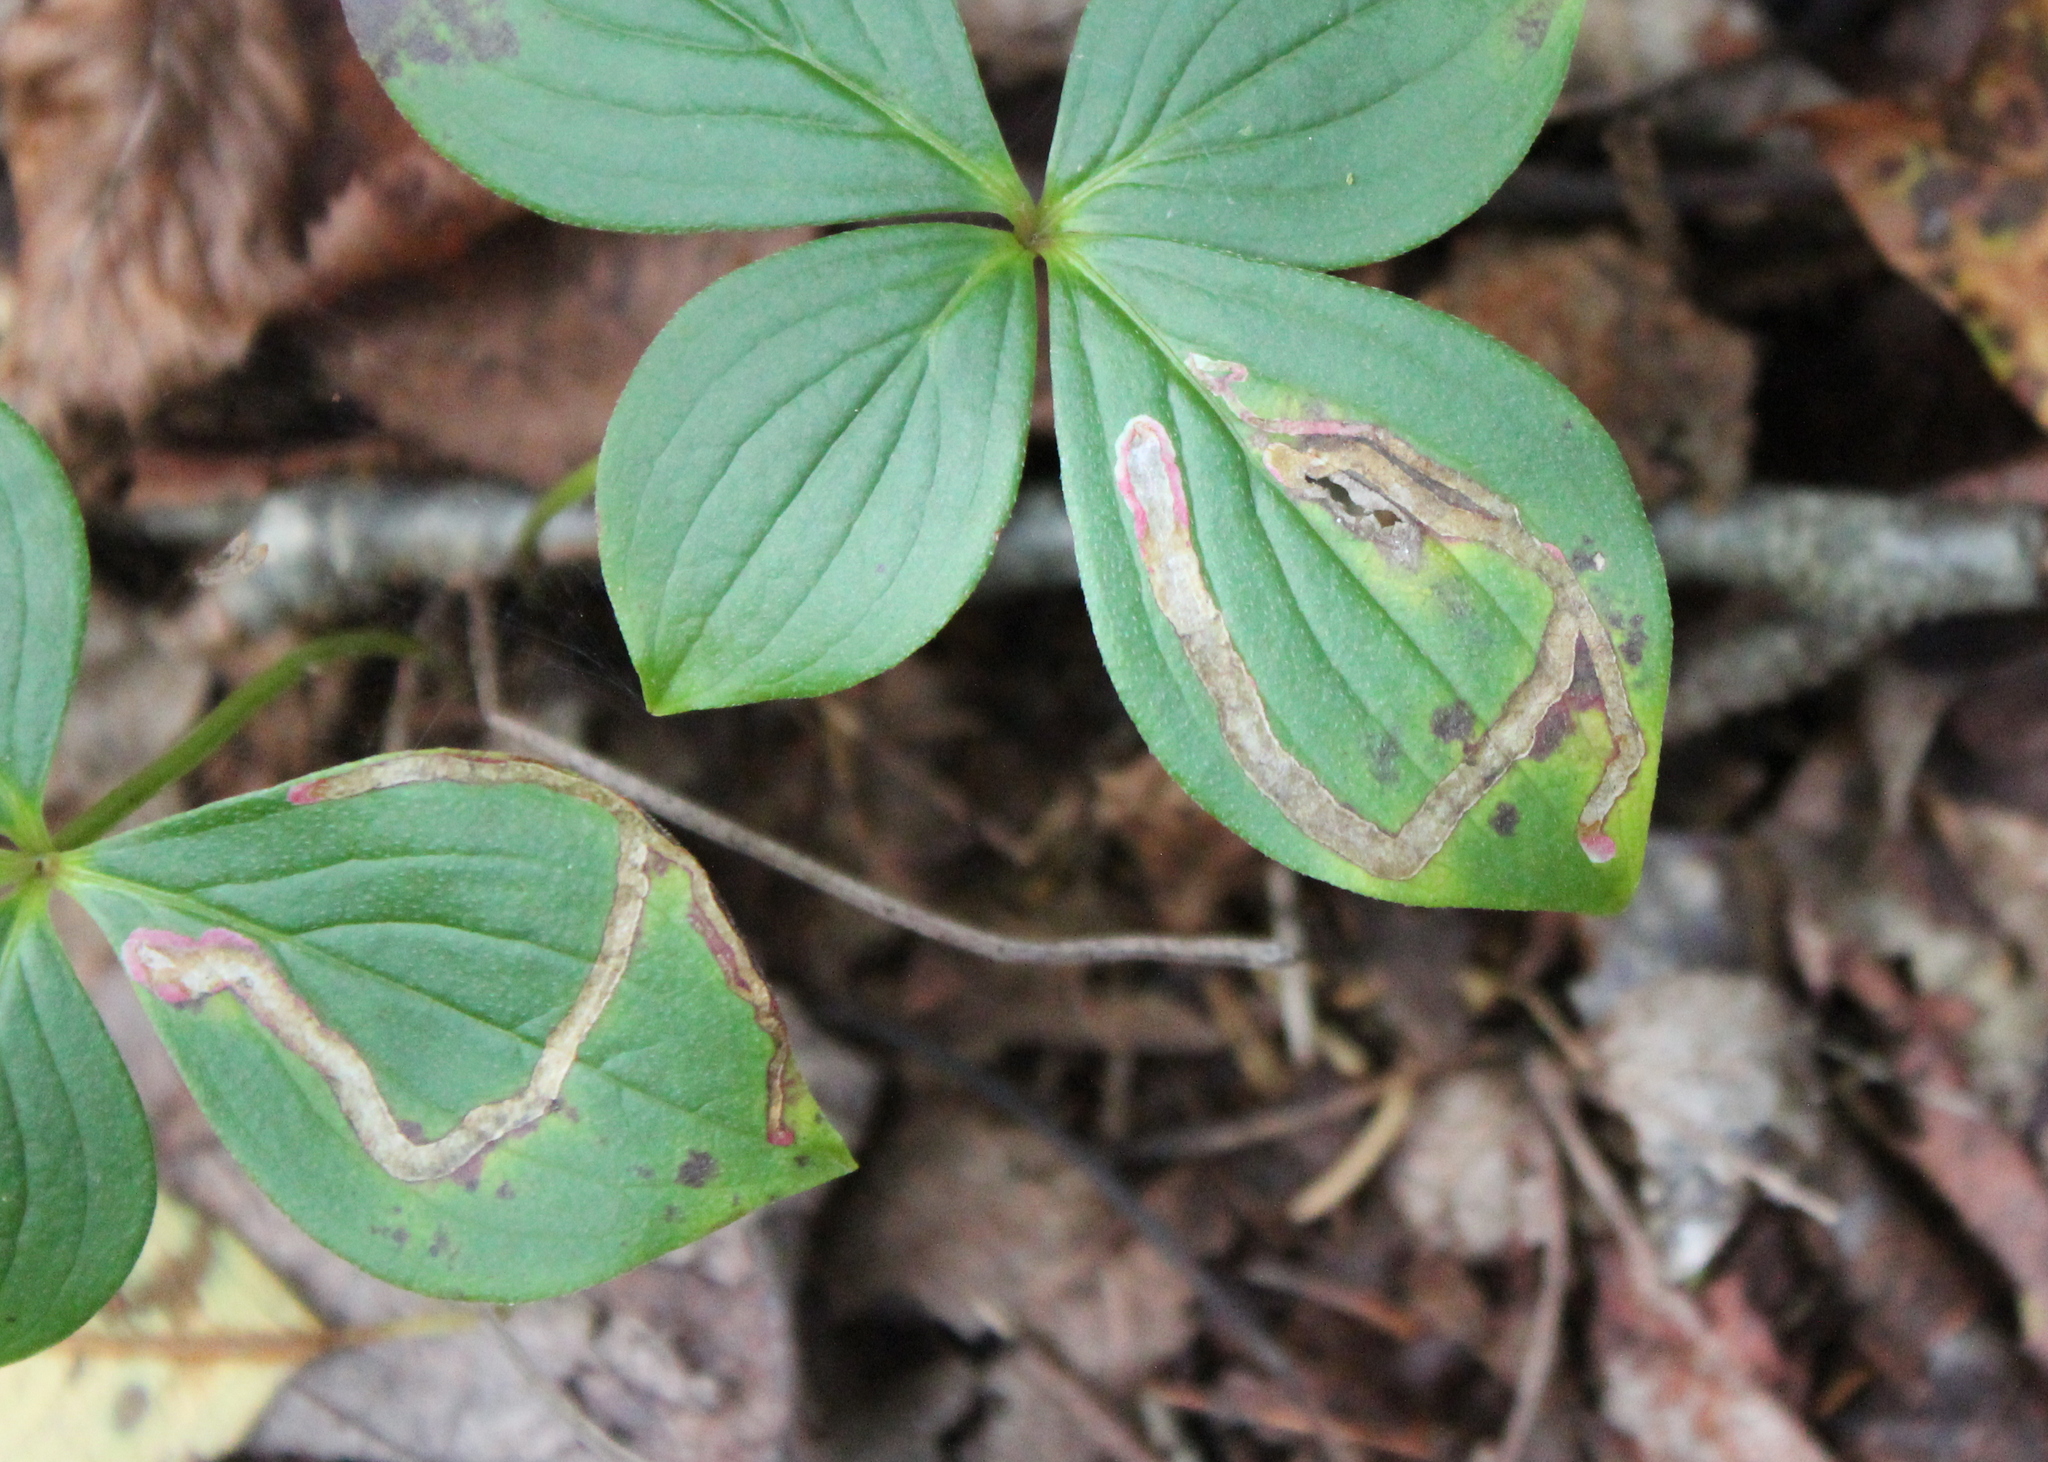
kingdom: Plantae
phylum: Tracheophyta
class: Magnoliopsida
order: Cornales
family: Cornaceae
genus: Cornus
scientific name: Cornus canadensis
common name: Creeping dogwood
